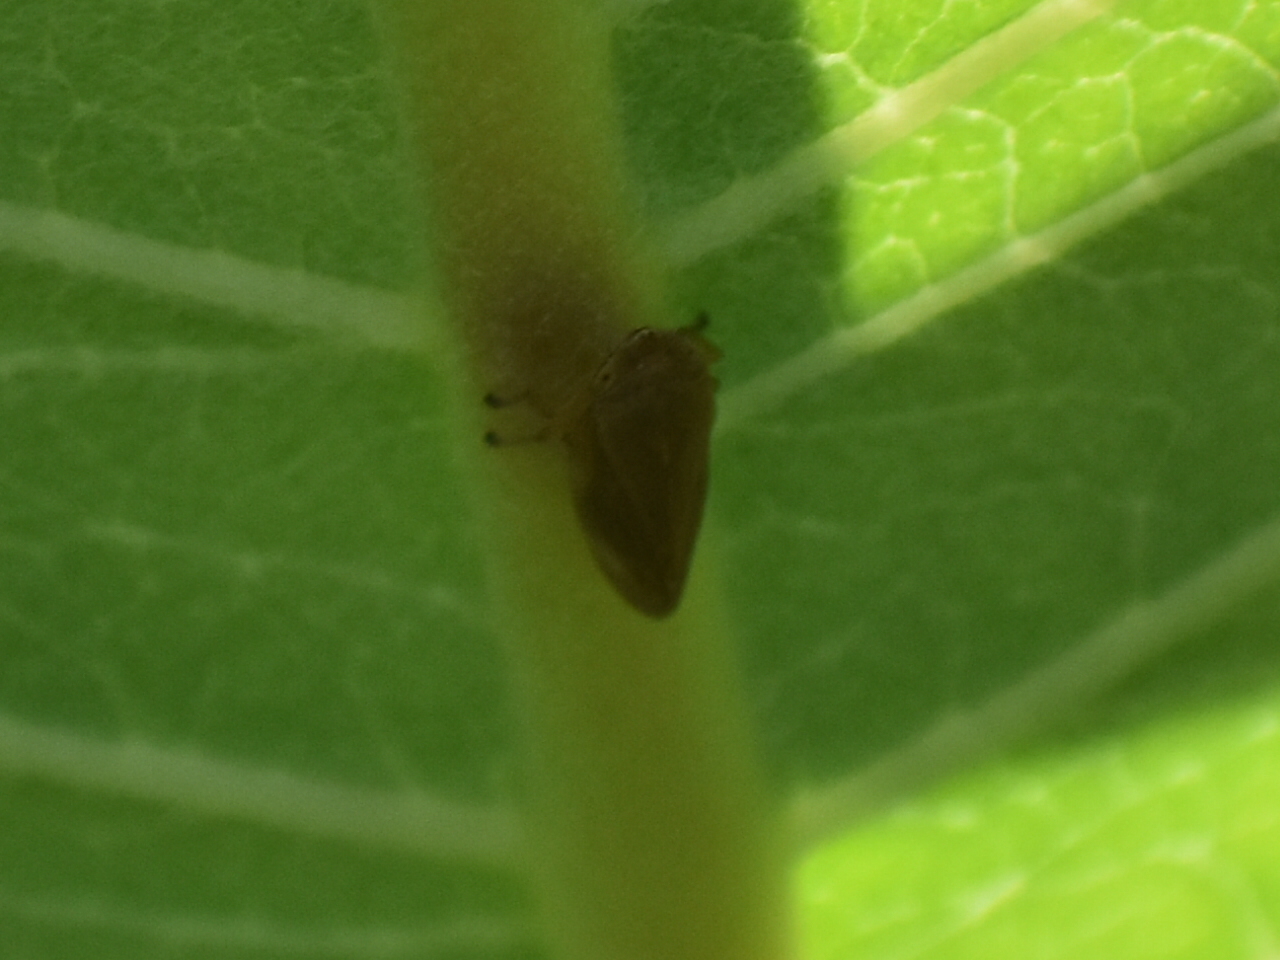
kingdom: Animalia
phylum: Arthropoda
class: Insecta
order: Hemiptera
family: Aphrophoridae
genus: Philaenus
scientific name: Philaenus spumarius
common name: Meadow spittlebug
